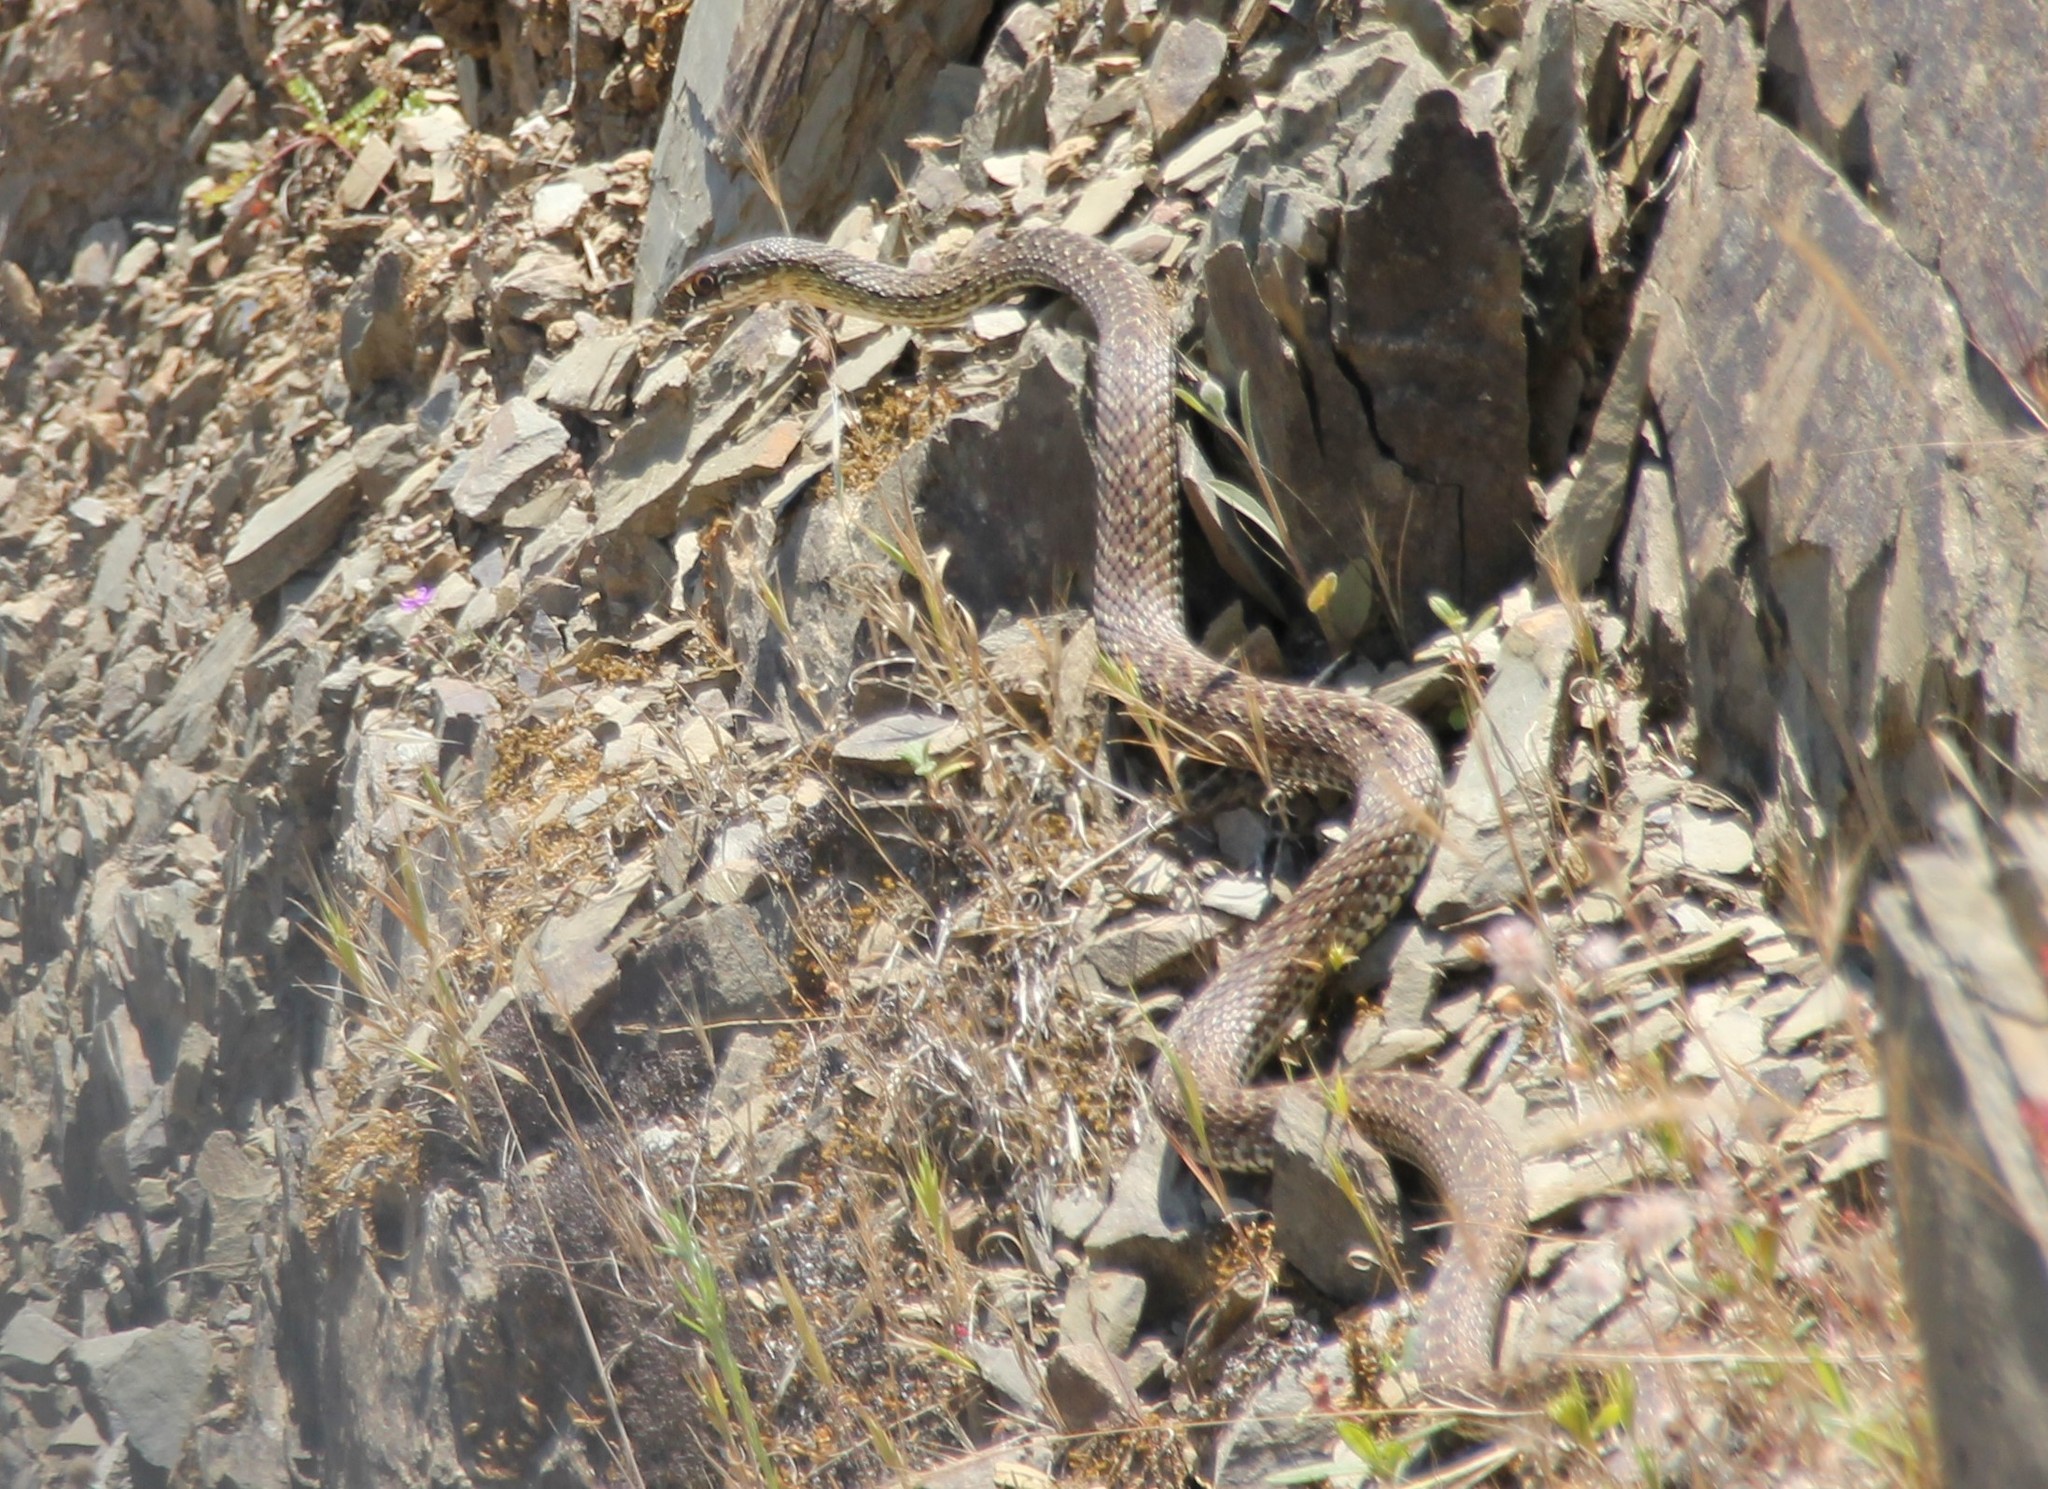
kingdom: Animalia
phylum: Chordata
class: Squamata
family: Psammophiidae
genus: Malpolon
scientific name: Malpolon monspessulanus
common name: Montpellier snake
